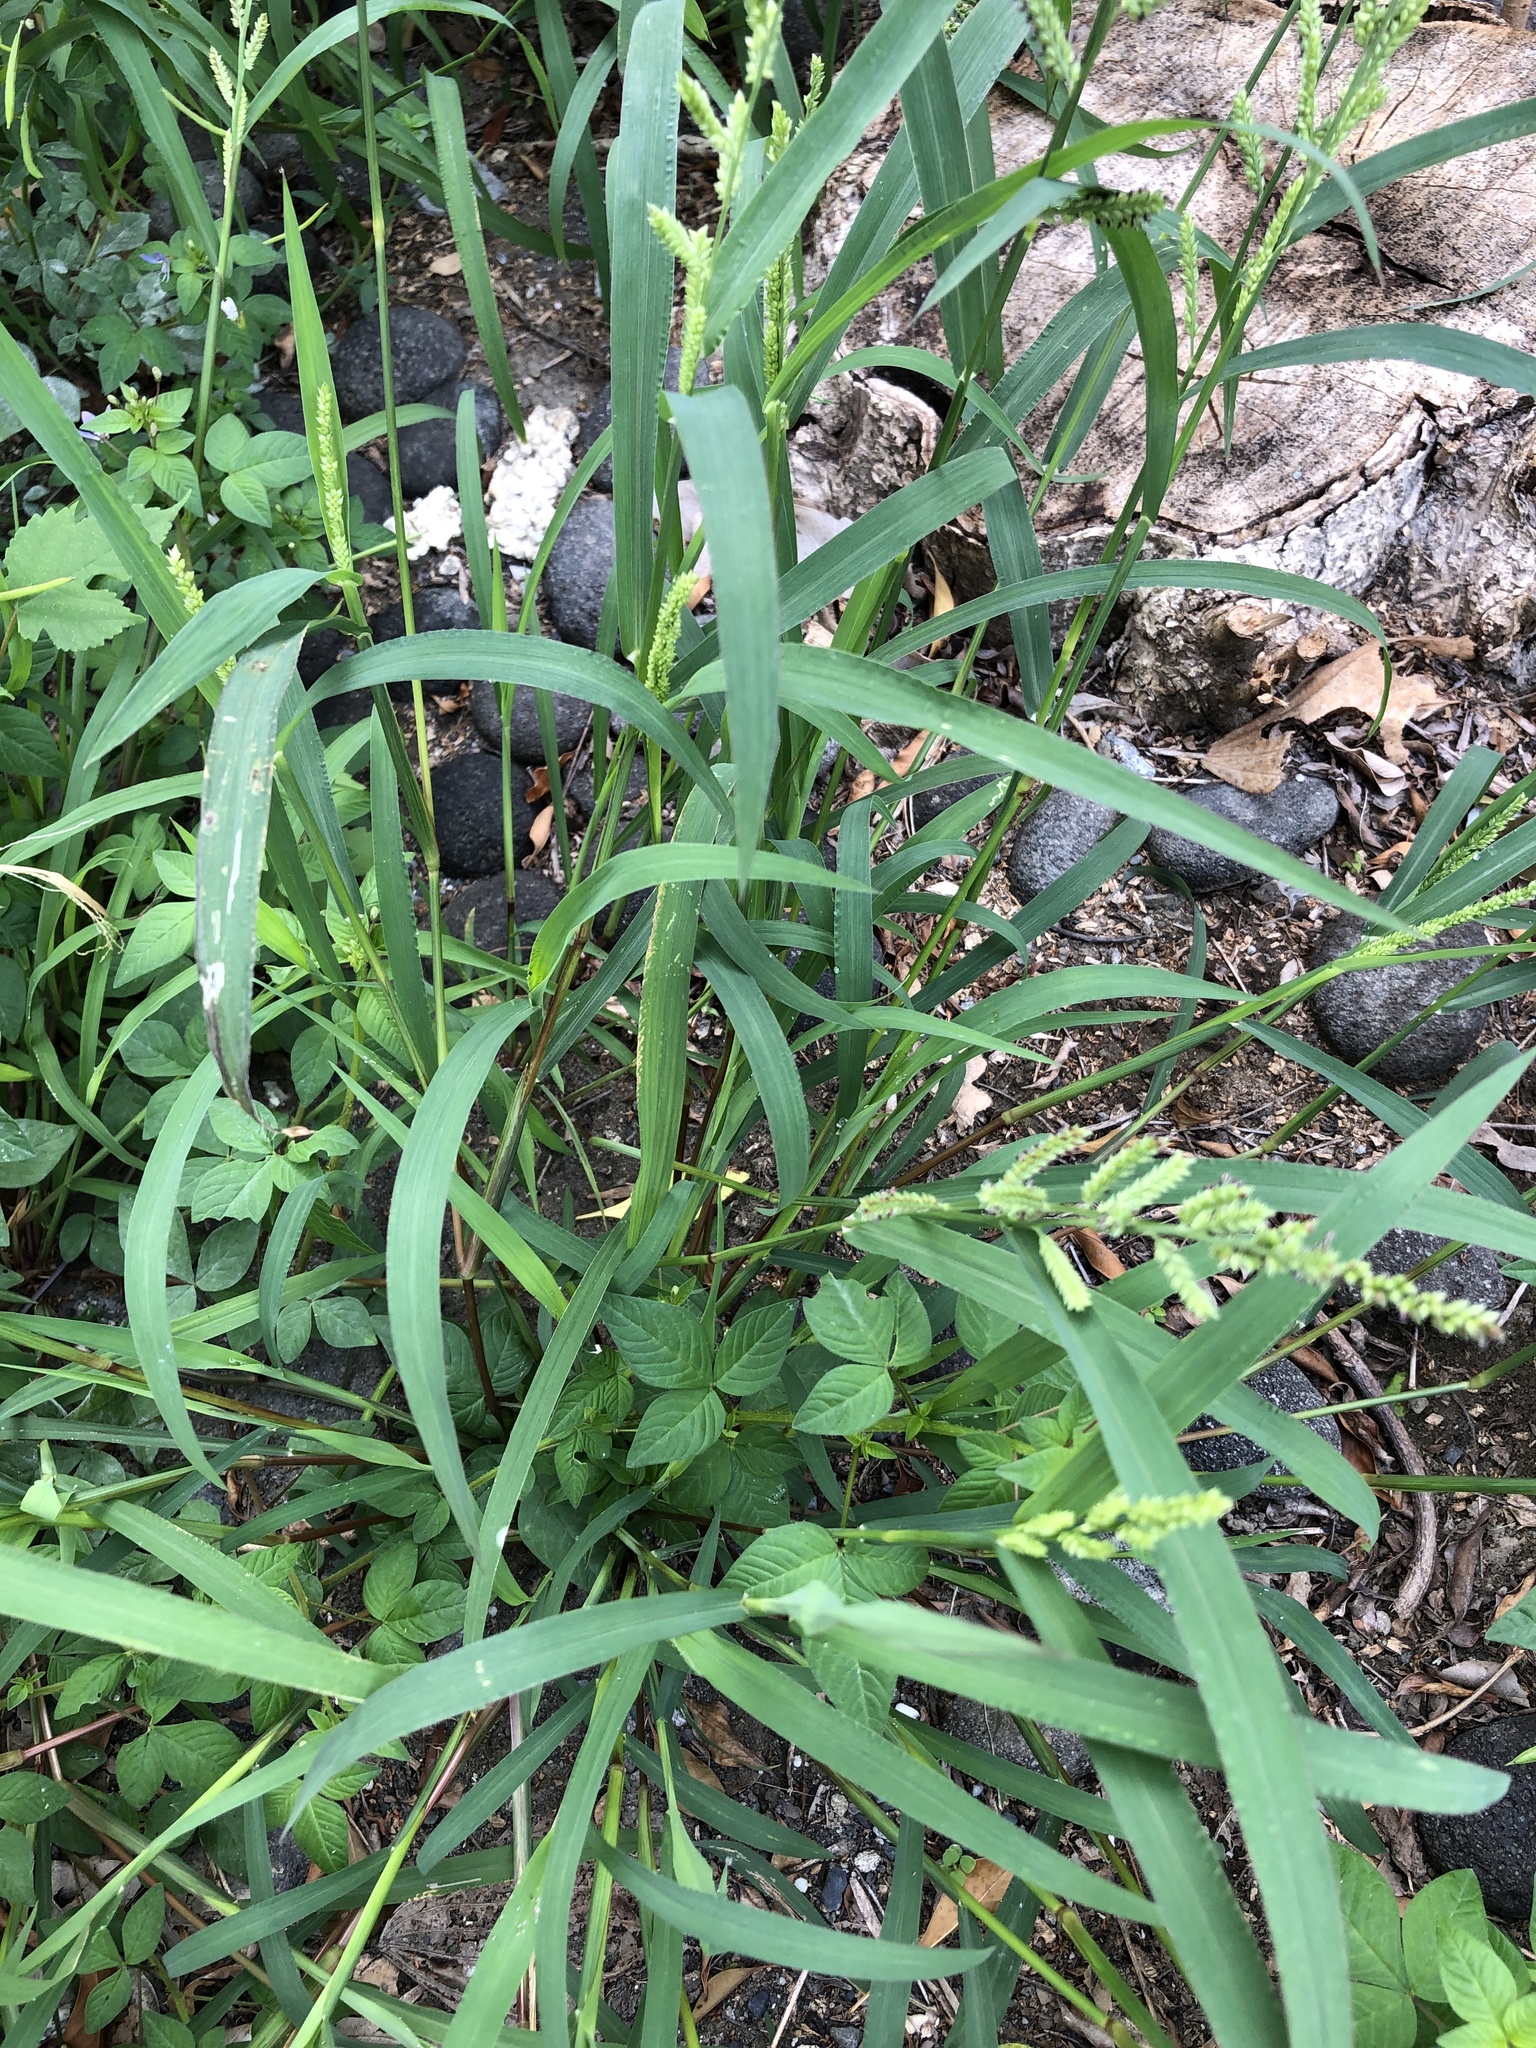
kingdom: Plantae
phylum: Tracheophyta
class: Liliopsida
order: Poales
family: Poaceae
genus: Echinochloa
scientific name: Echinochloa colonum
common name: Jungle rice
